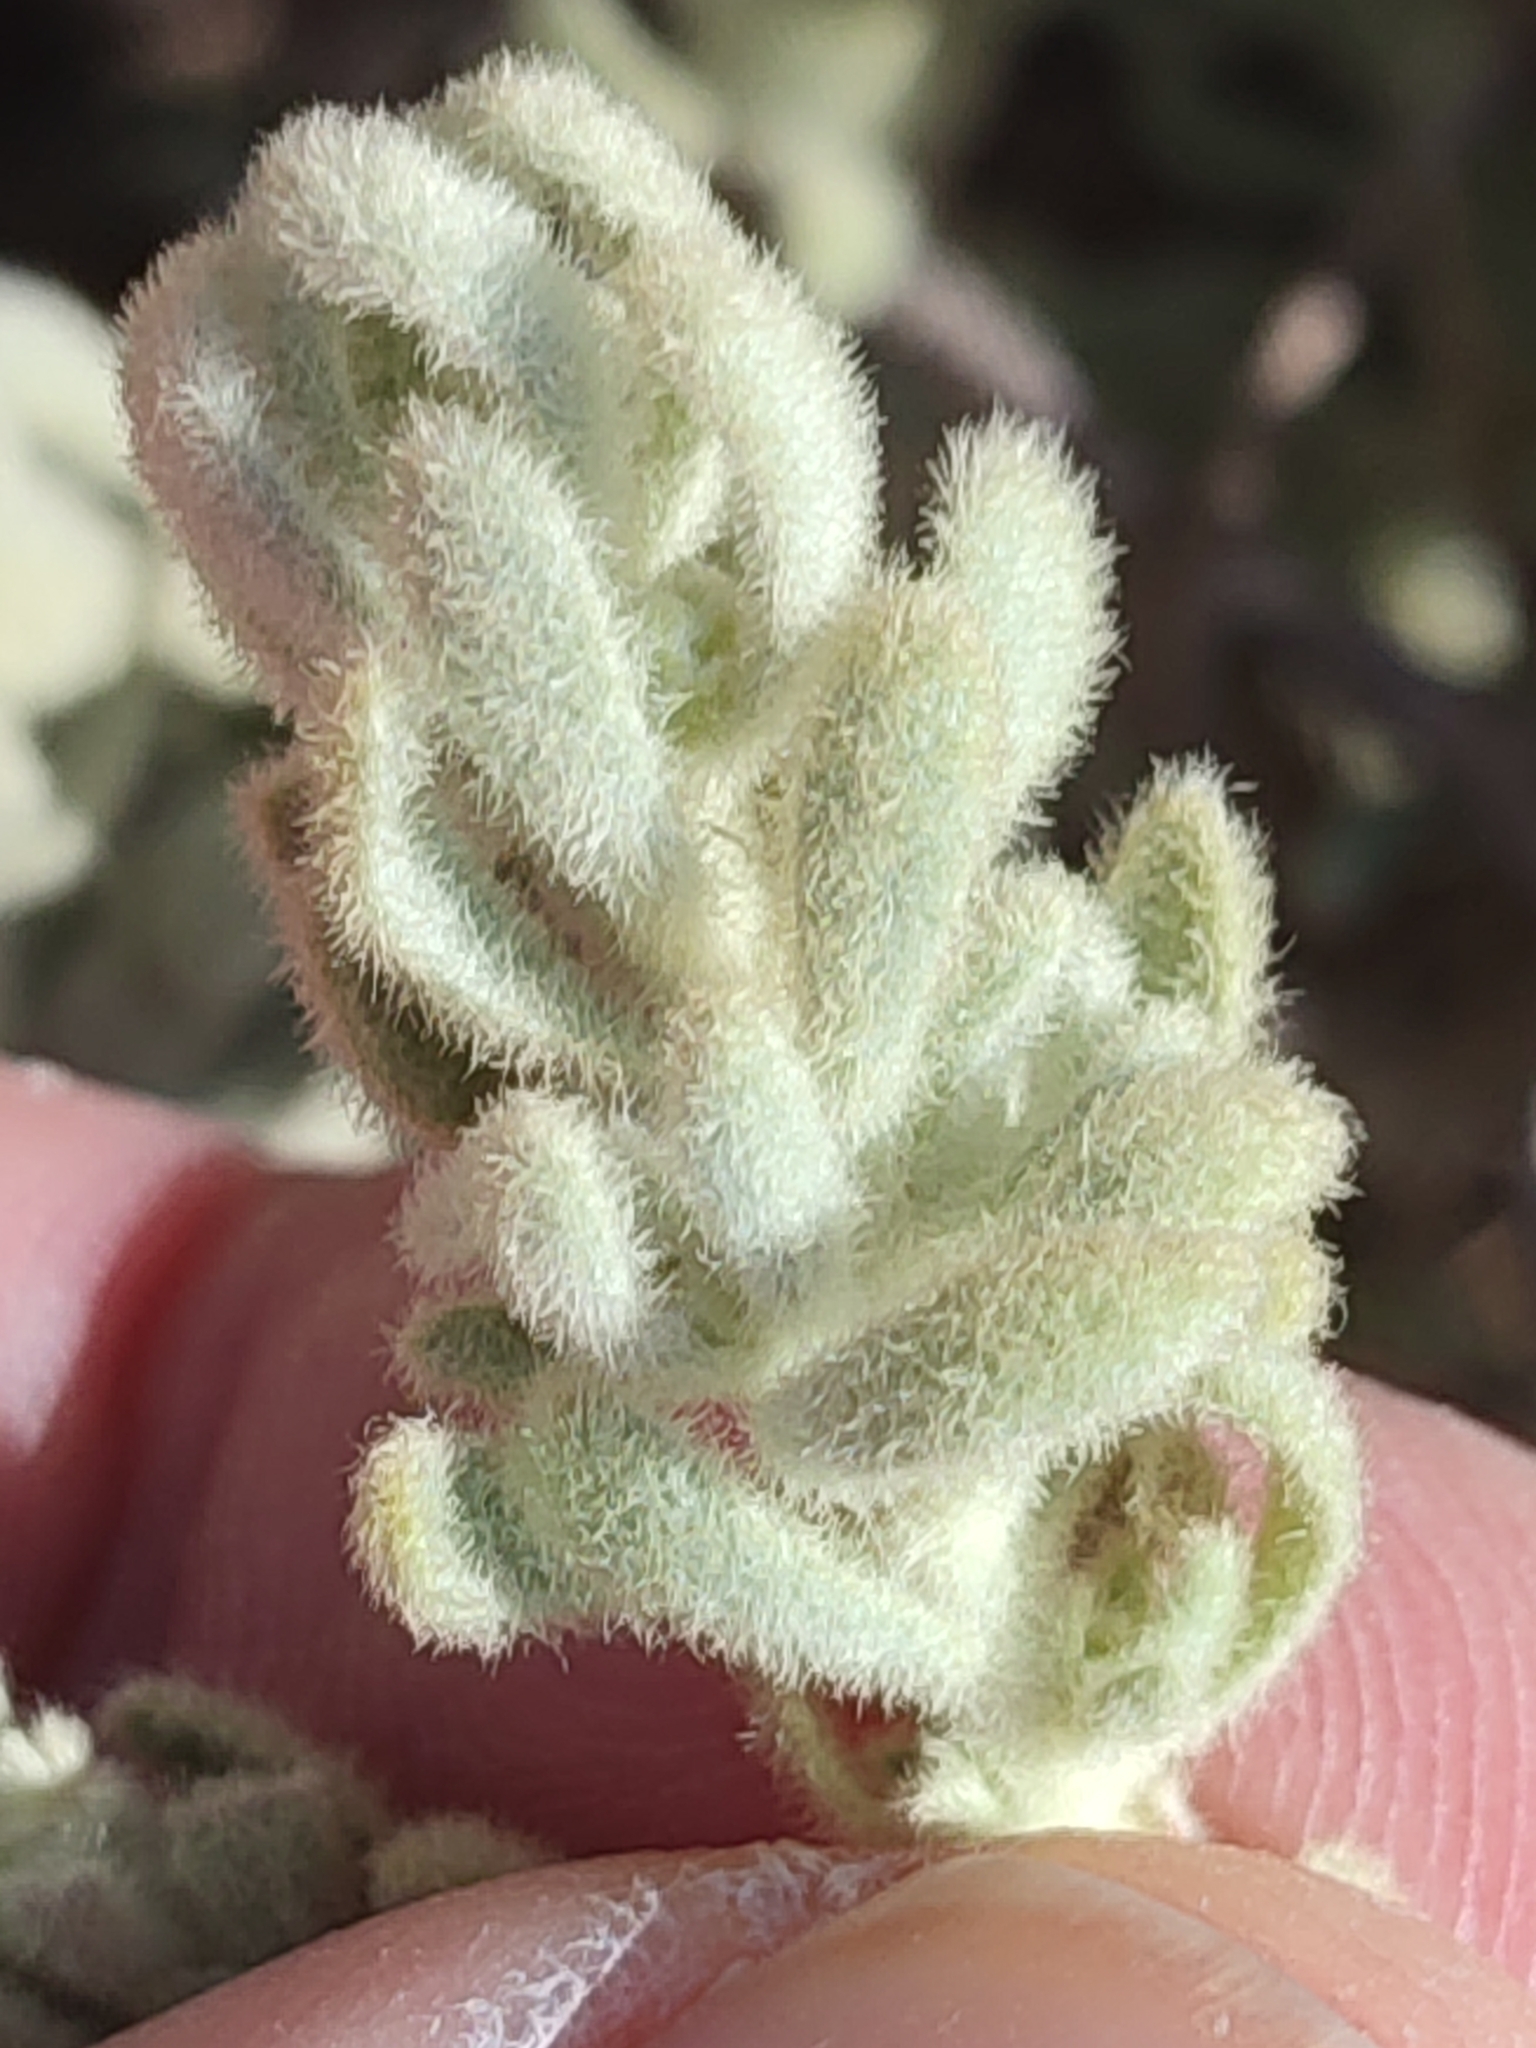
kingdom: Plantae
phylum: Tracheophyta
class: Magnoliopsida
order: Malvales
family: Thymelaeaceae
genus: Thymelaea
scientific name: Thymelaea velutina
